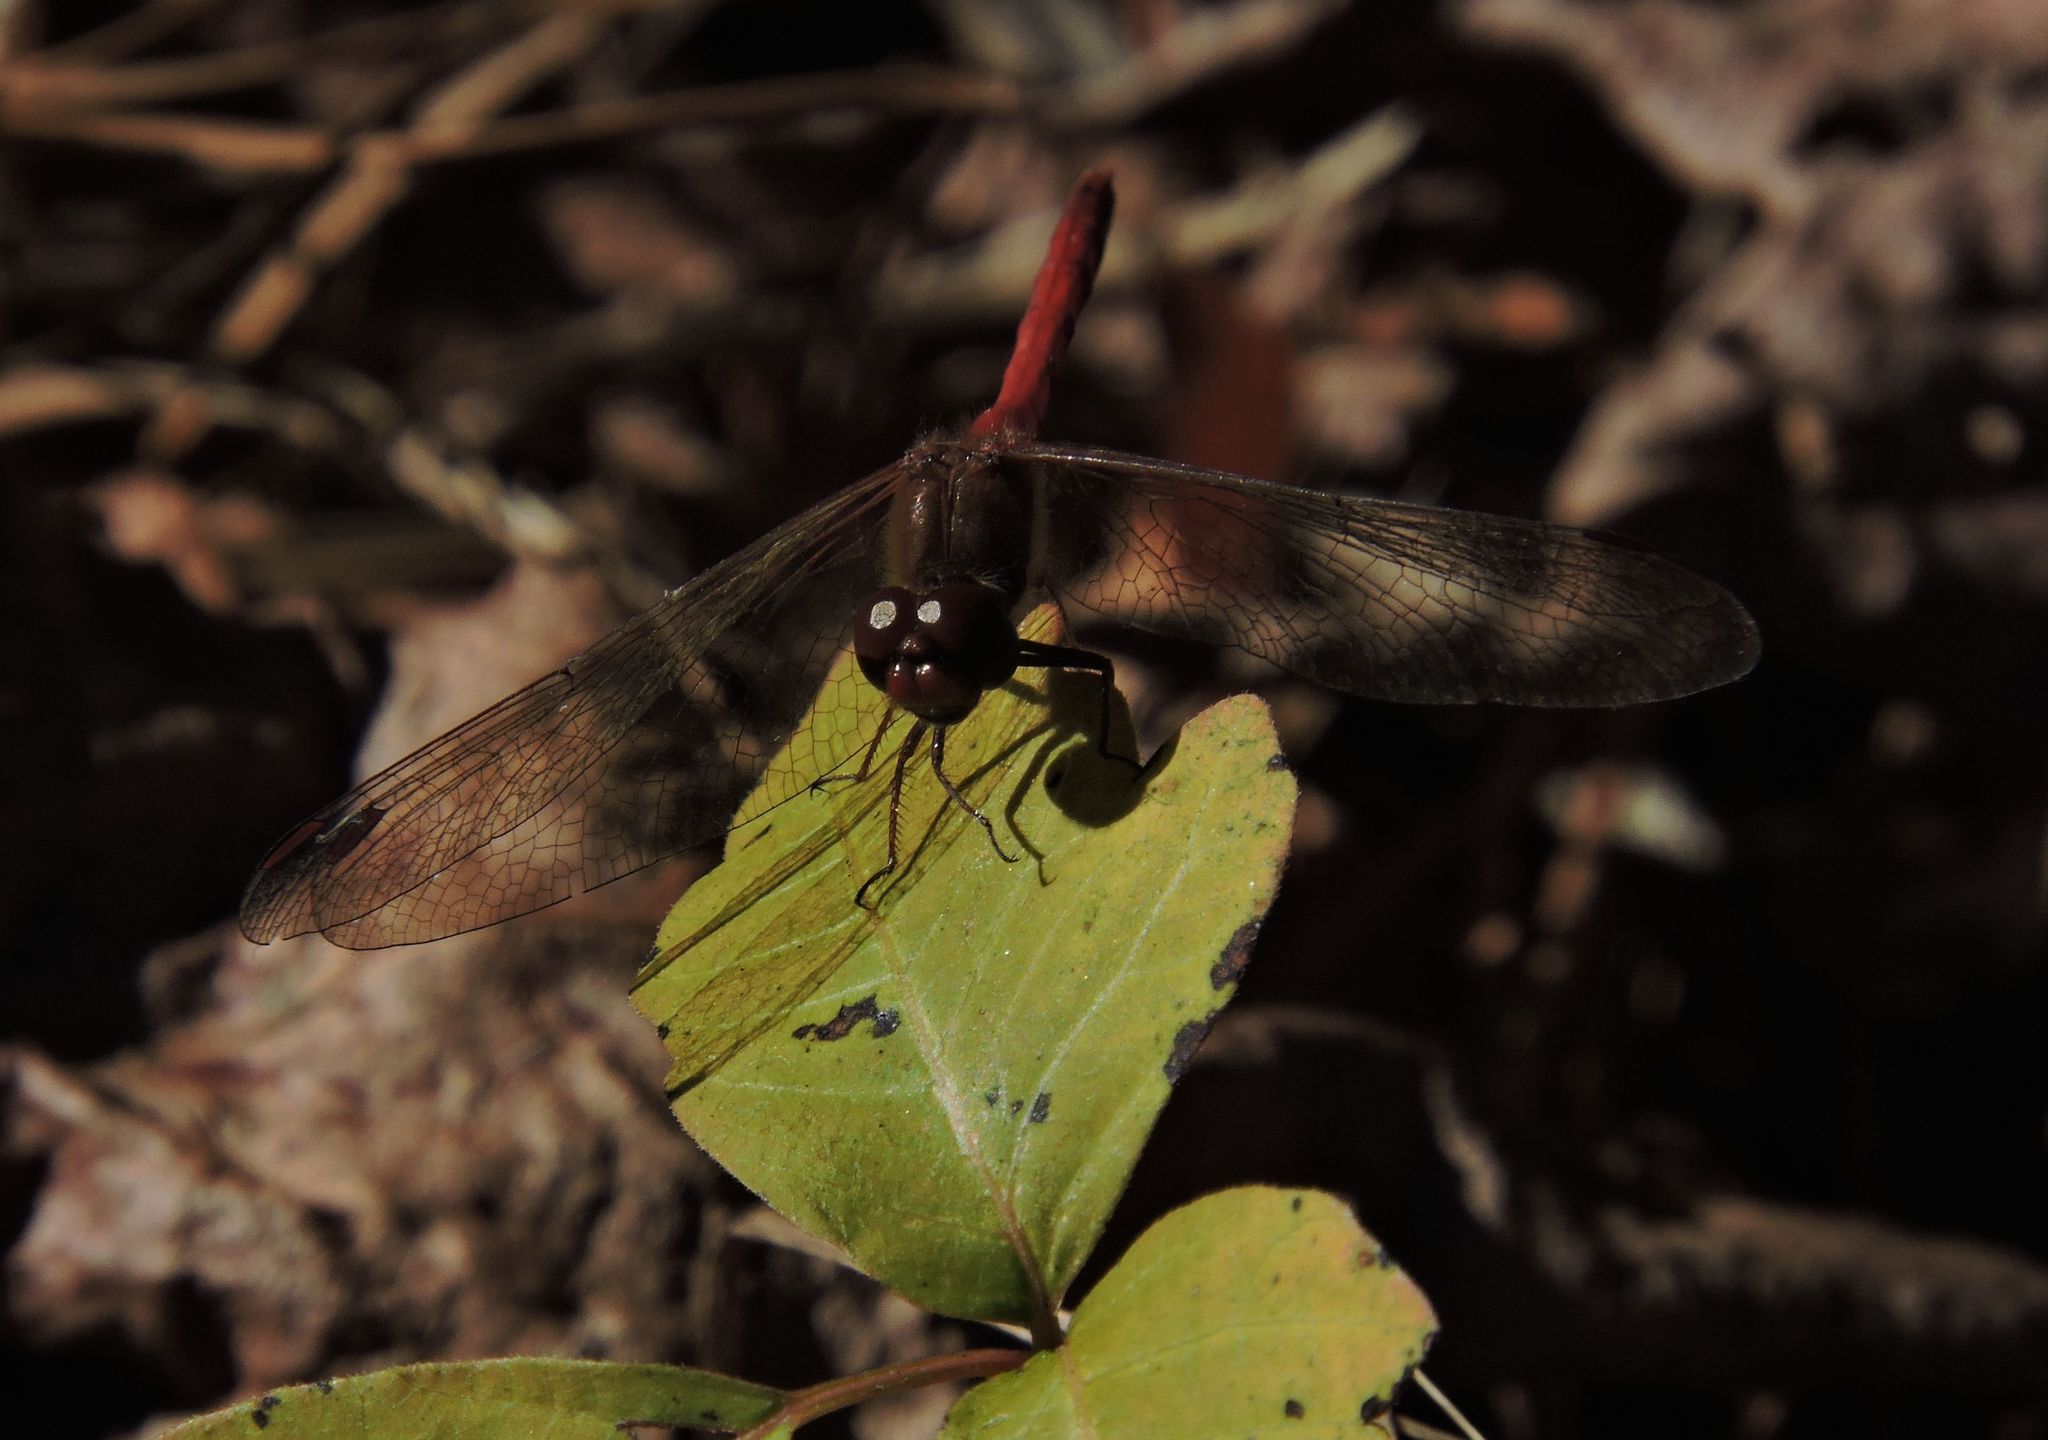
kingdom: Animalia
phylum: Arthropoda
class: Insecta
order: Odonata
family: Libellulidae
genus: Sympetrum
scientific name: Sympetrum vicinum
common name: Autumn meadowhawk
